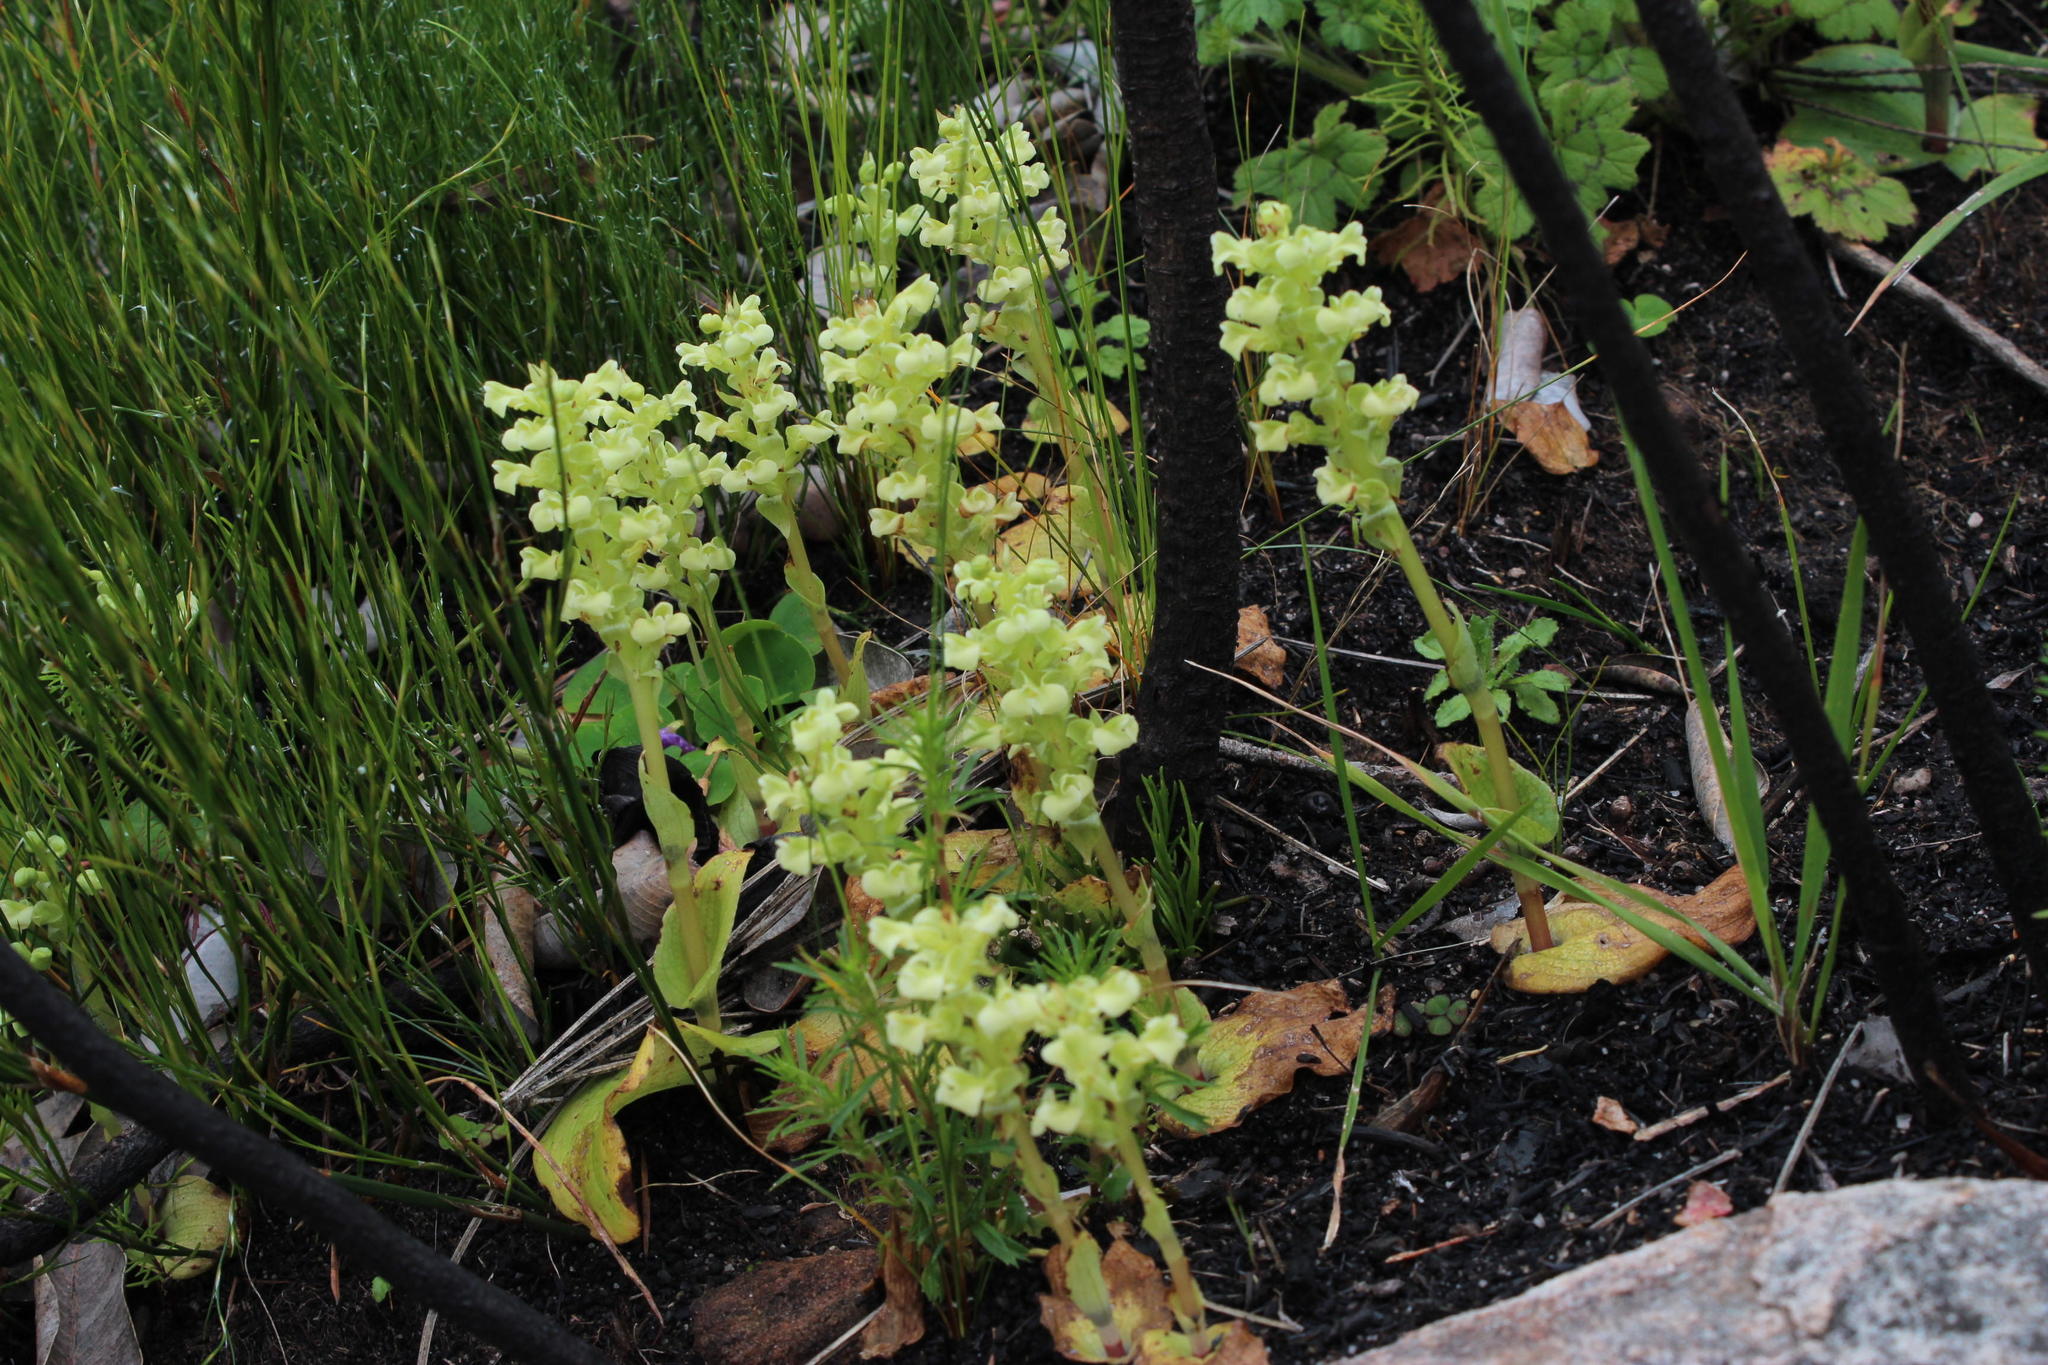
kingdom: Plantae
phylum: Tracheophyta
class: Liliopsida
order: Asparagales
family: Orchidaceae
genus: Pterygodium
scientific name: Pterygodium volucris
